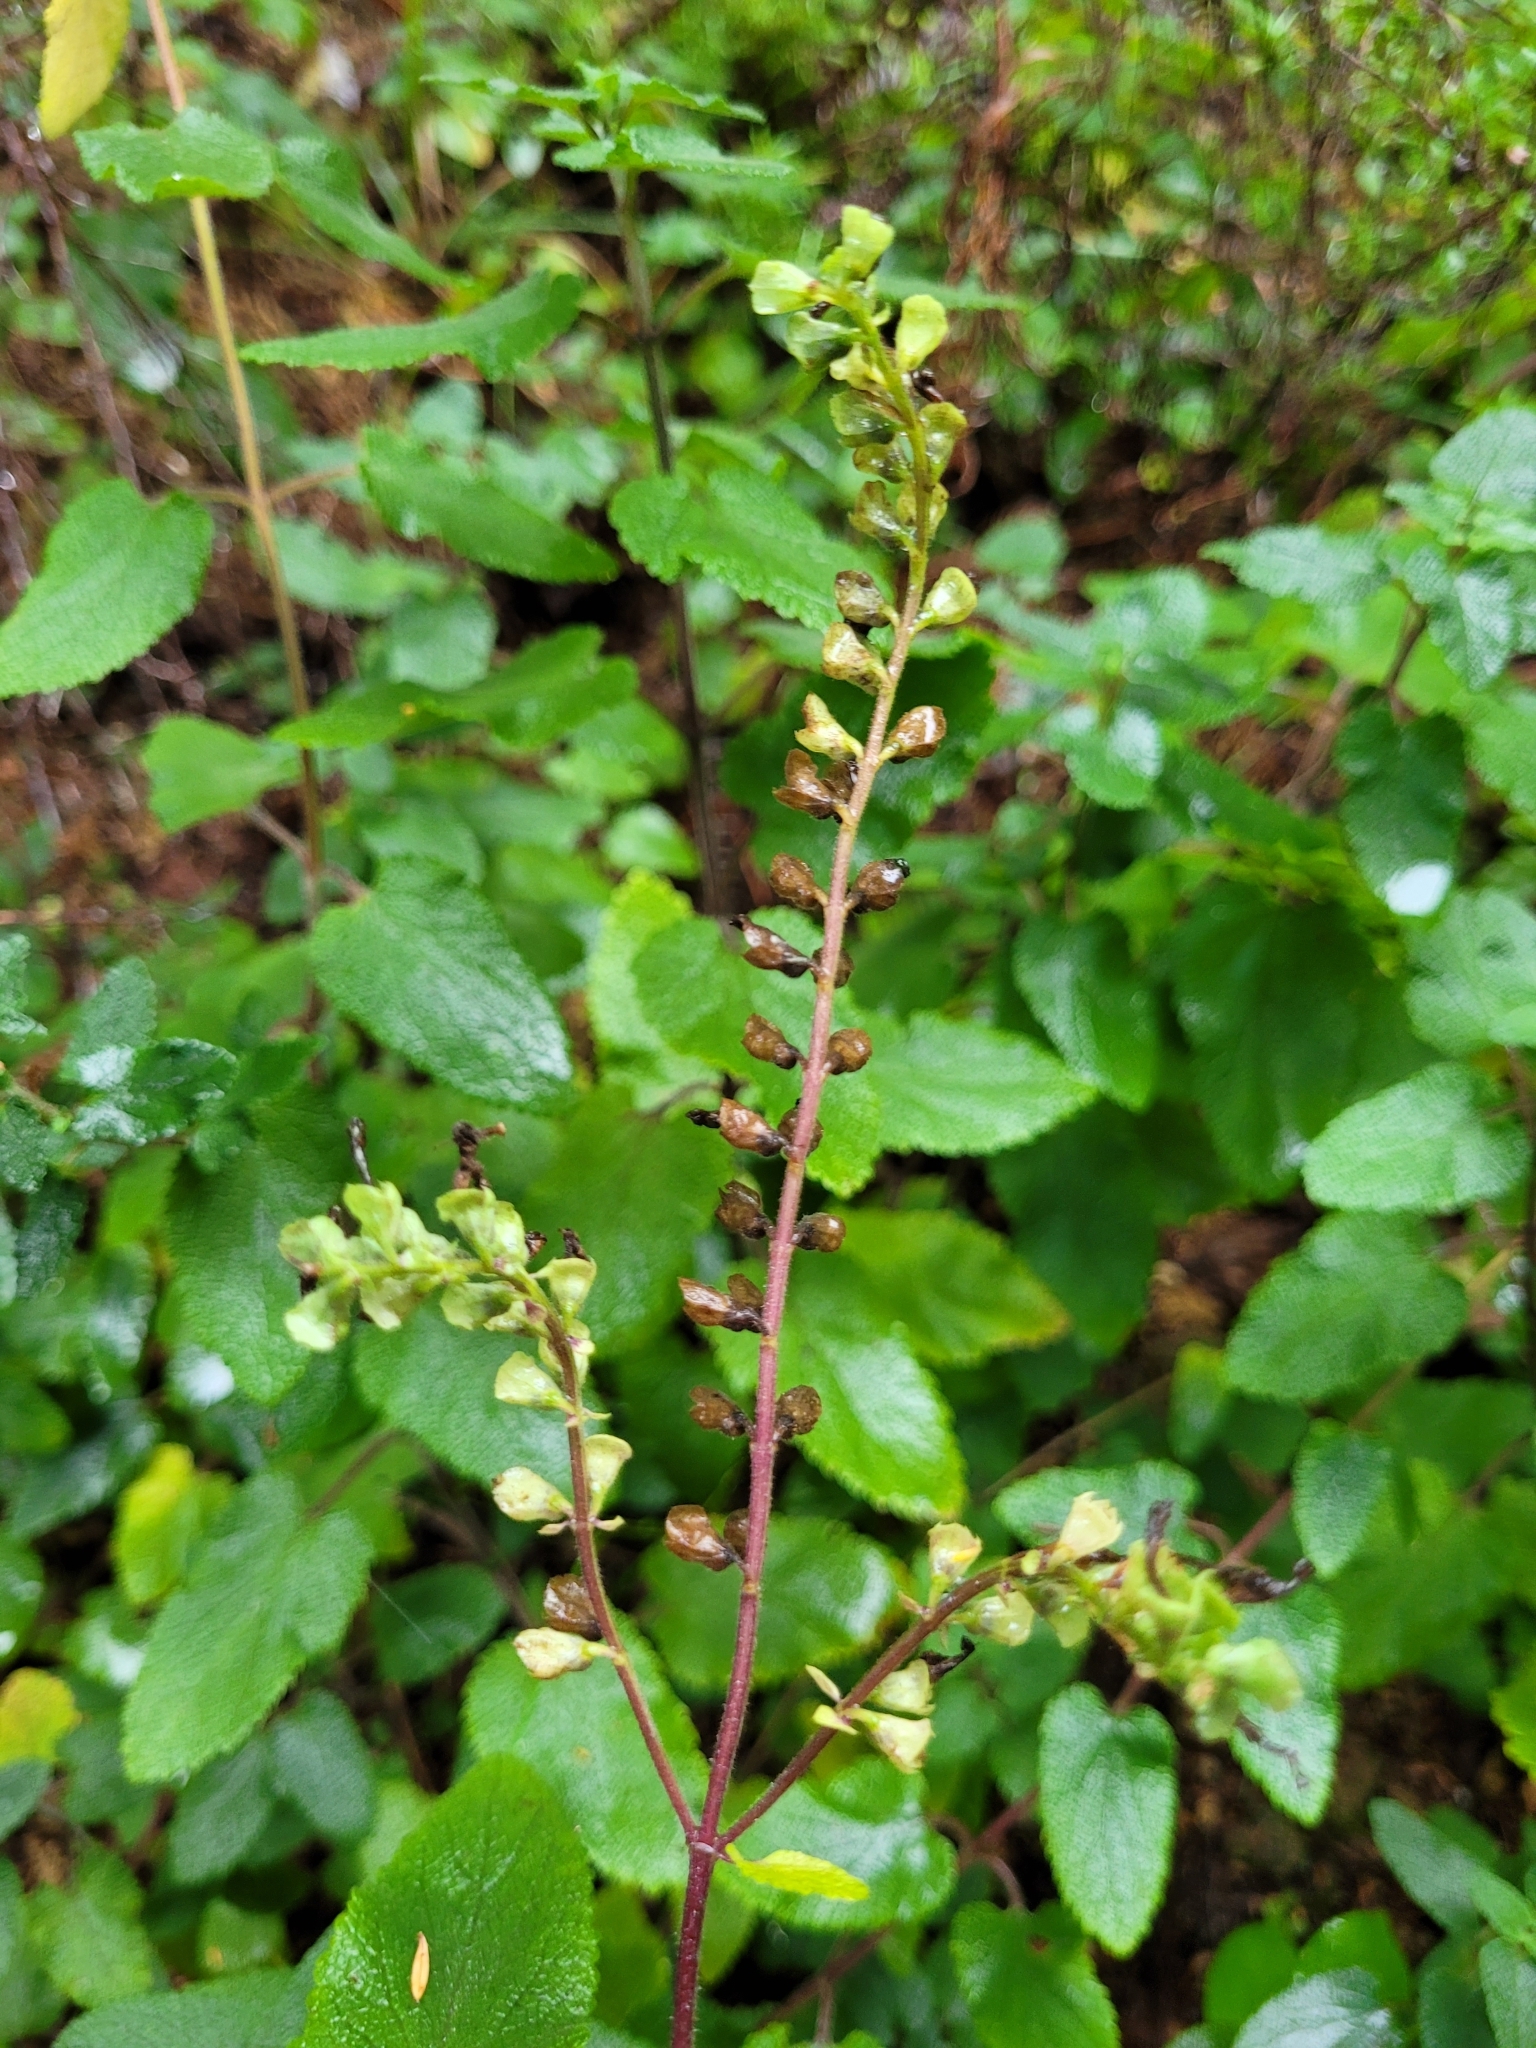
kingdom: Plantae
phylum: Tracheophyta
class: Magnoliopsida
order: Lamiales
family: Lamiaceae
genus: Teucrium
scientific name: Teucrium scorodonia
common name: Woodland germander
